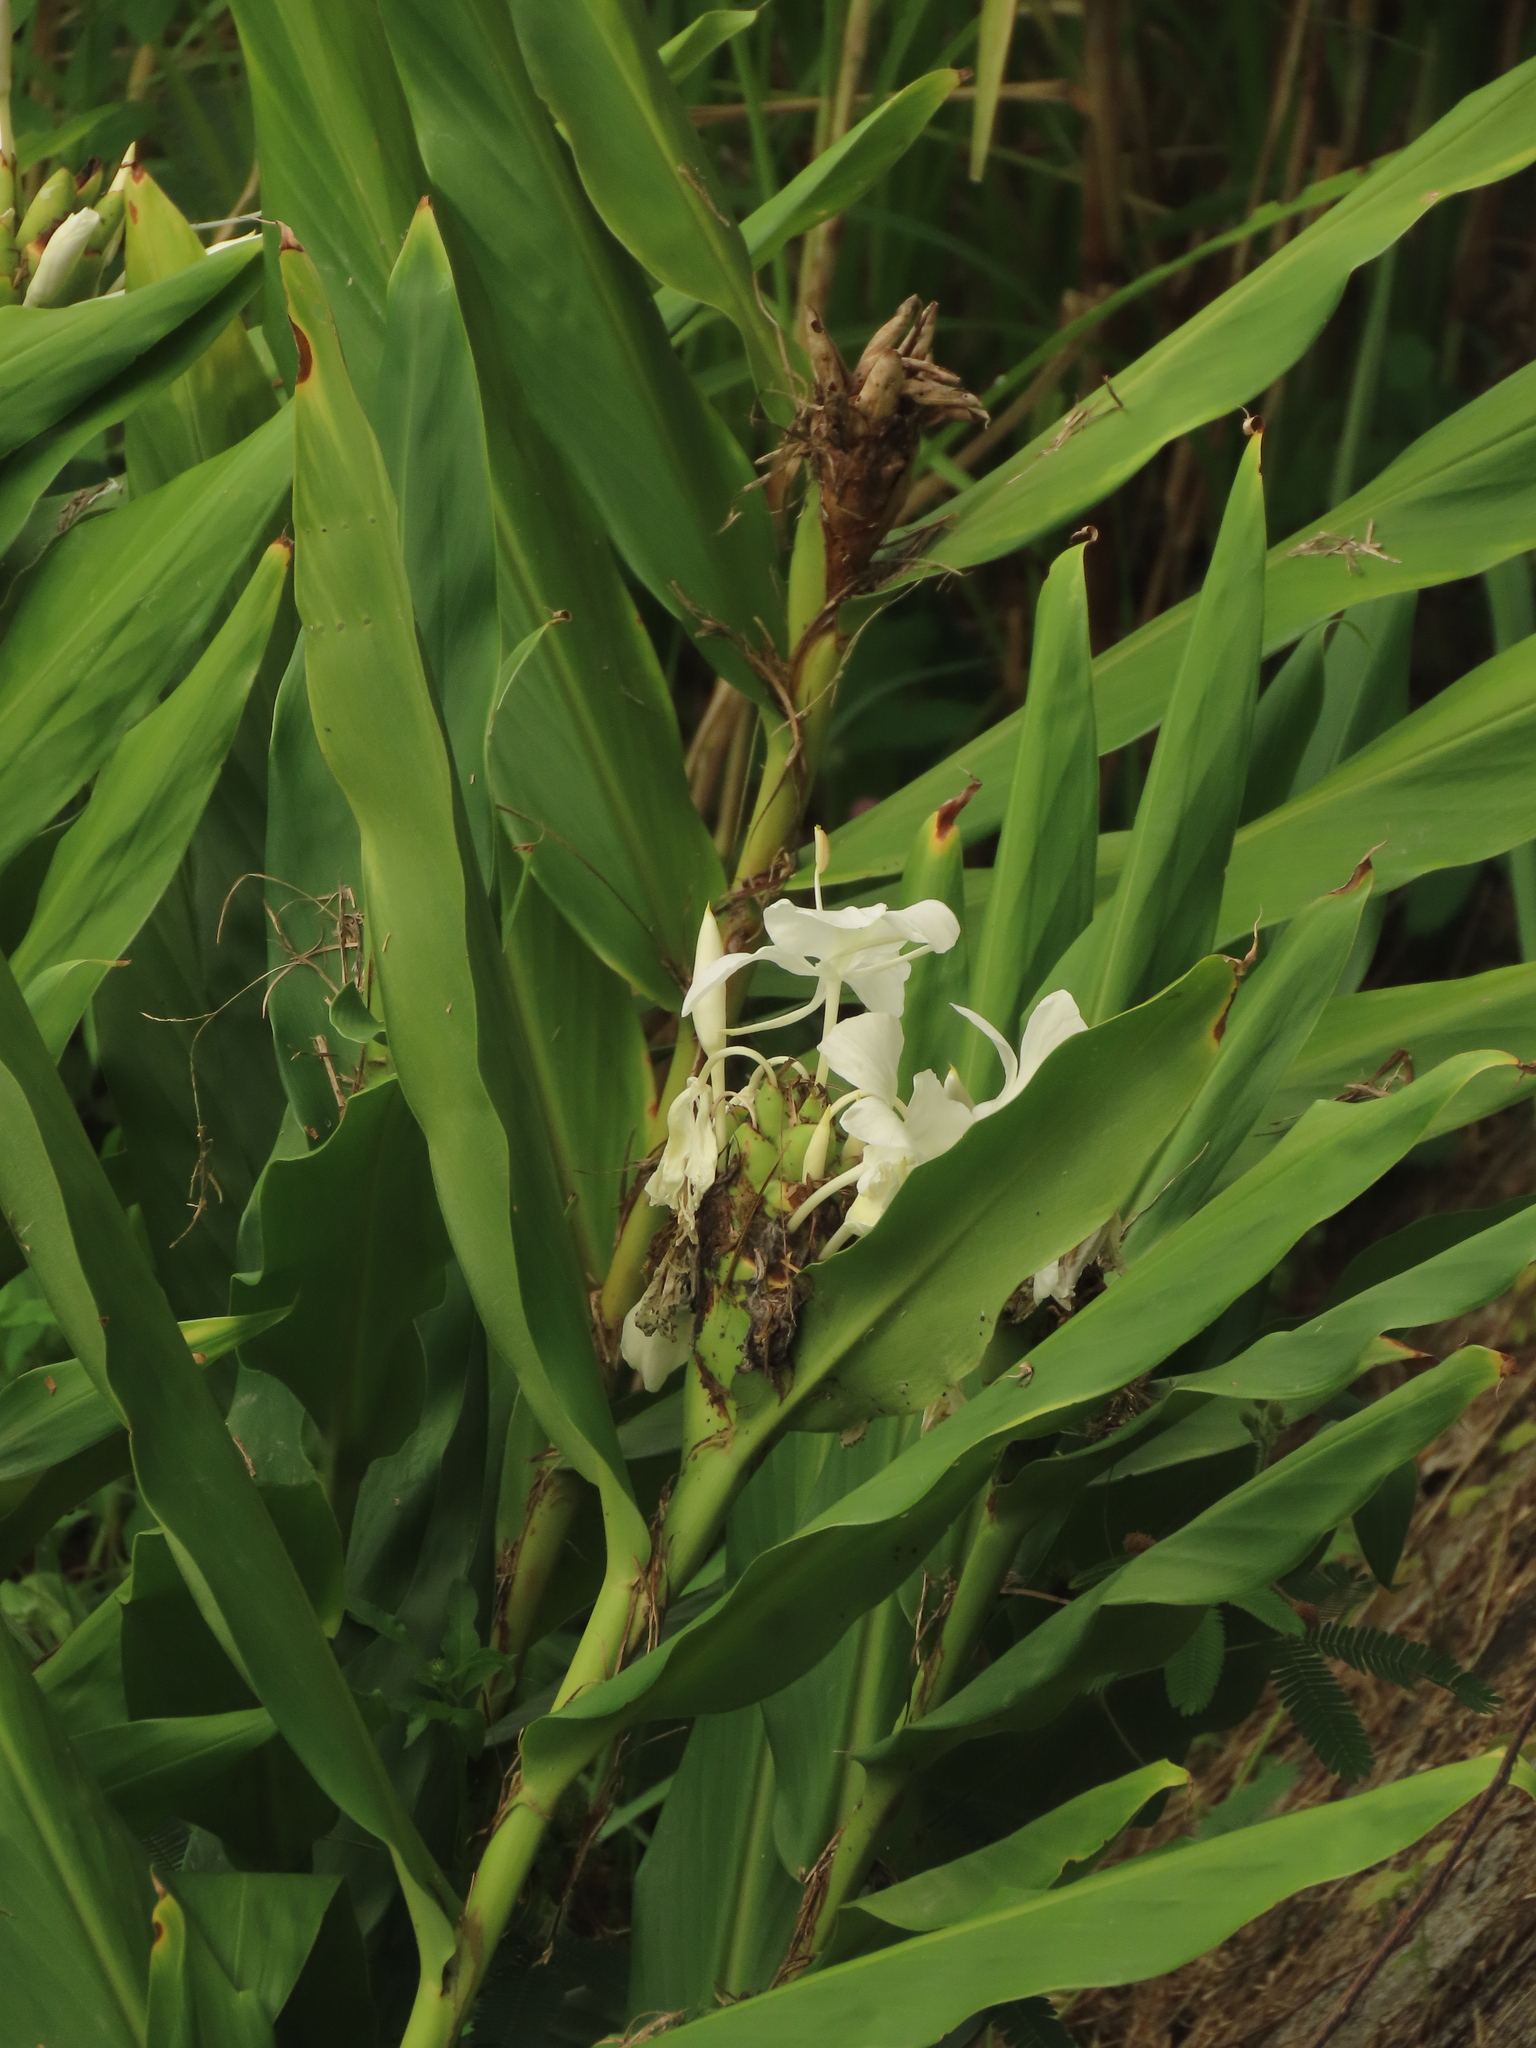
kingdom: Plantae
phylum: Tracheophyta
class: Liliopsida
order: Zingiberales
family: Zingiberaceae
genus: Hedychium
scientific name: Hedychium coronarium
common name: White garland-lily
